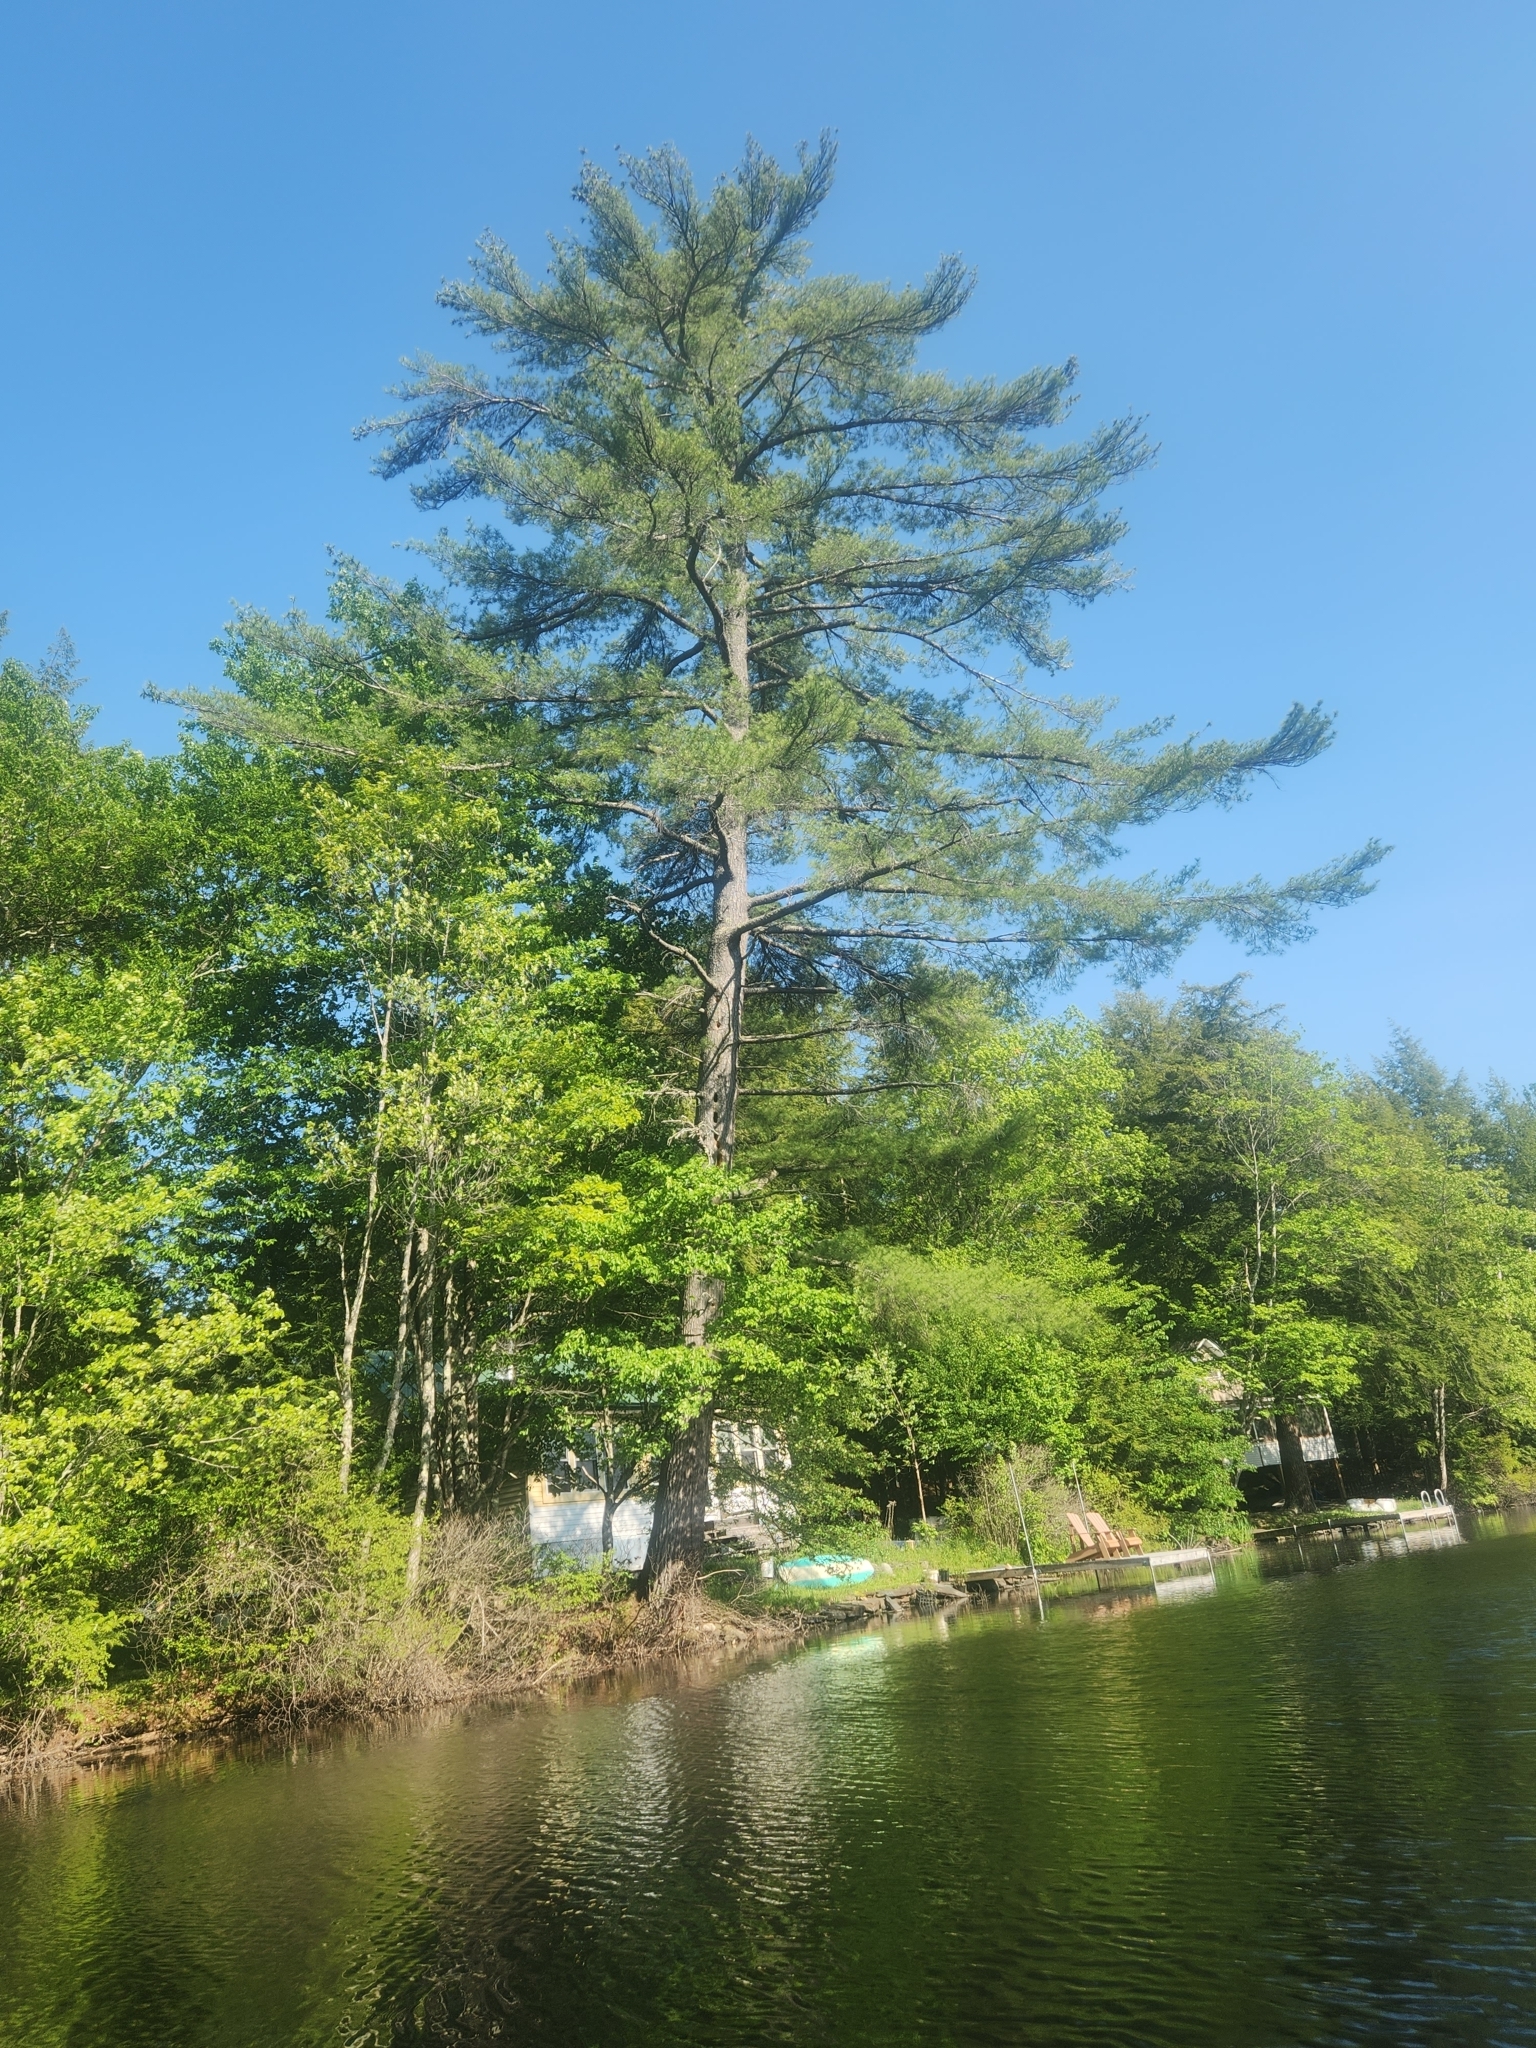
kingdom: Plantae
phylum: Tracheophyta
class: Pinopsida
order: Pinales
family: Pinaceae
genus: Pinus
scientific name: Pinus strobus
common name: Weymouth pine
